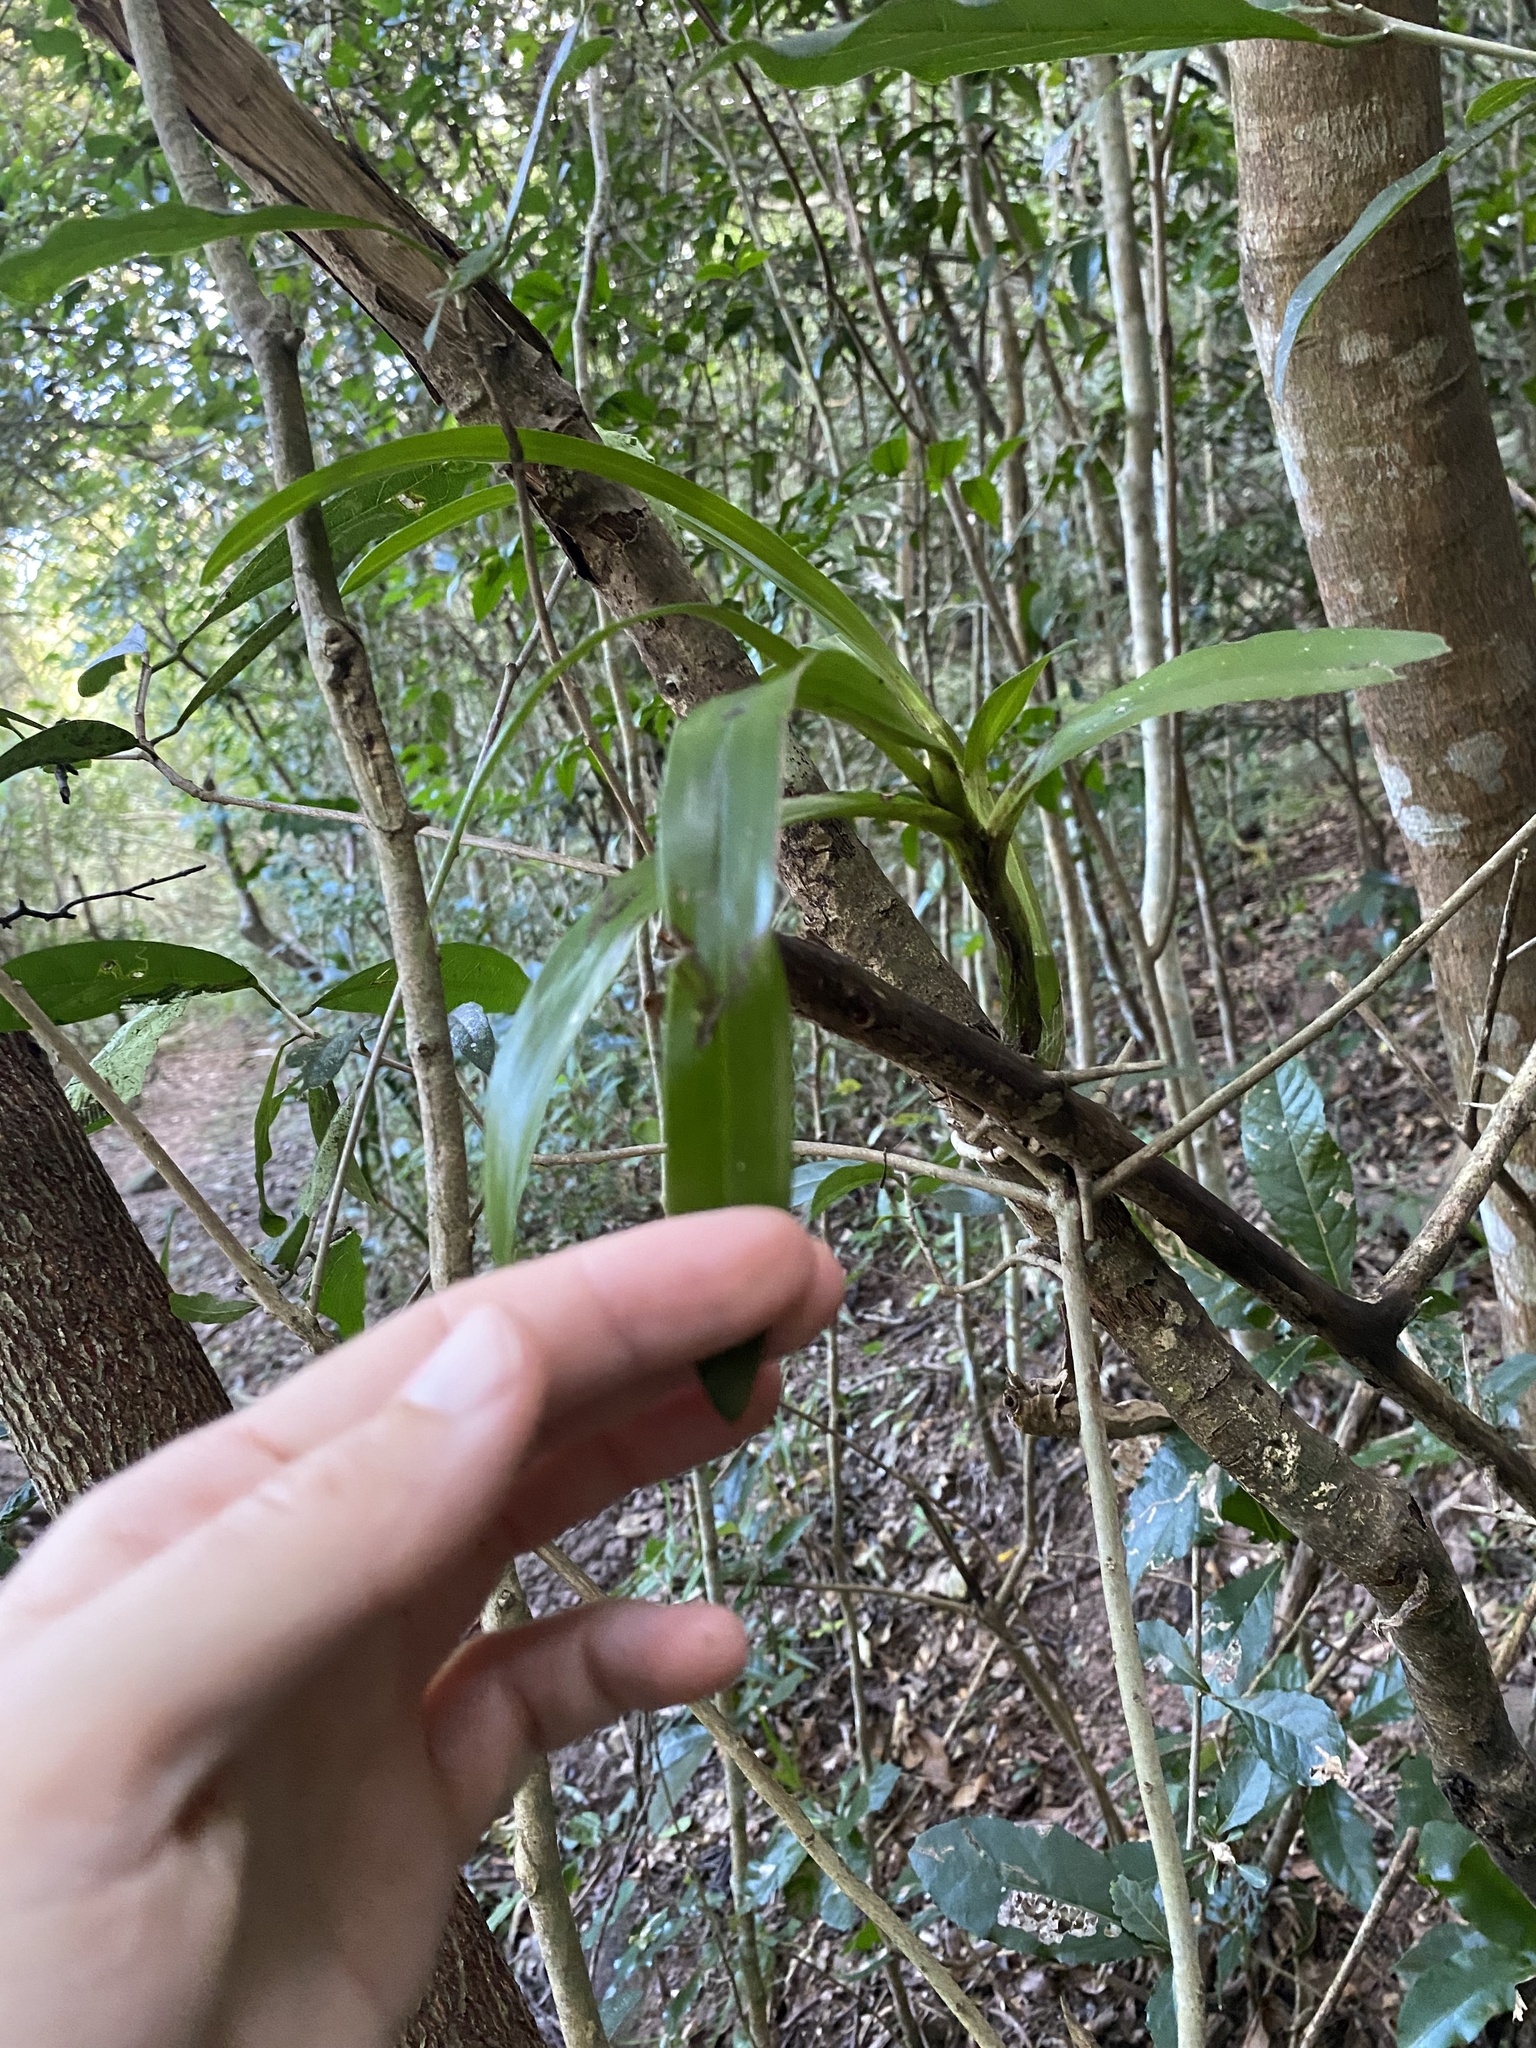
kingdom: Plantae
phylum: Tracheophyta
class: Liliopsida
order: Asparagales
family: Orchidaceae
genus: Ansellia
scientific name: Ansellia africana
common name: African ansellia
